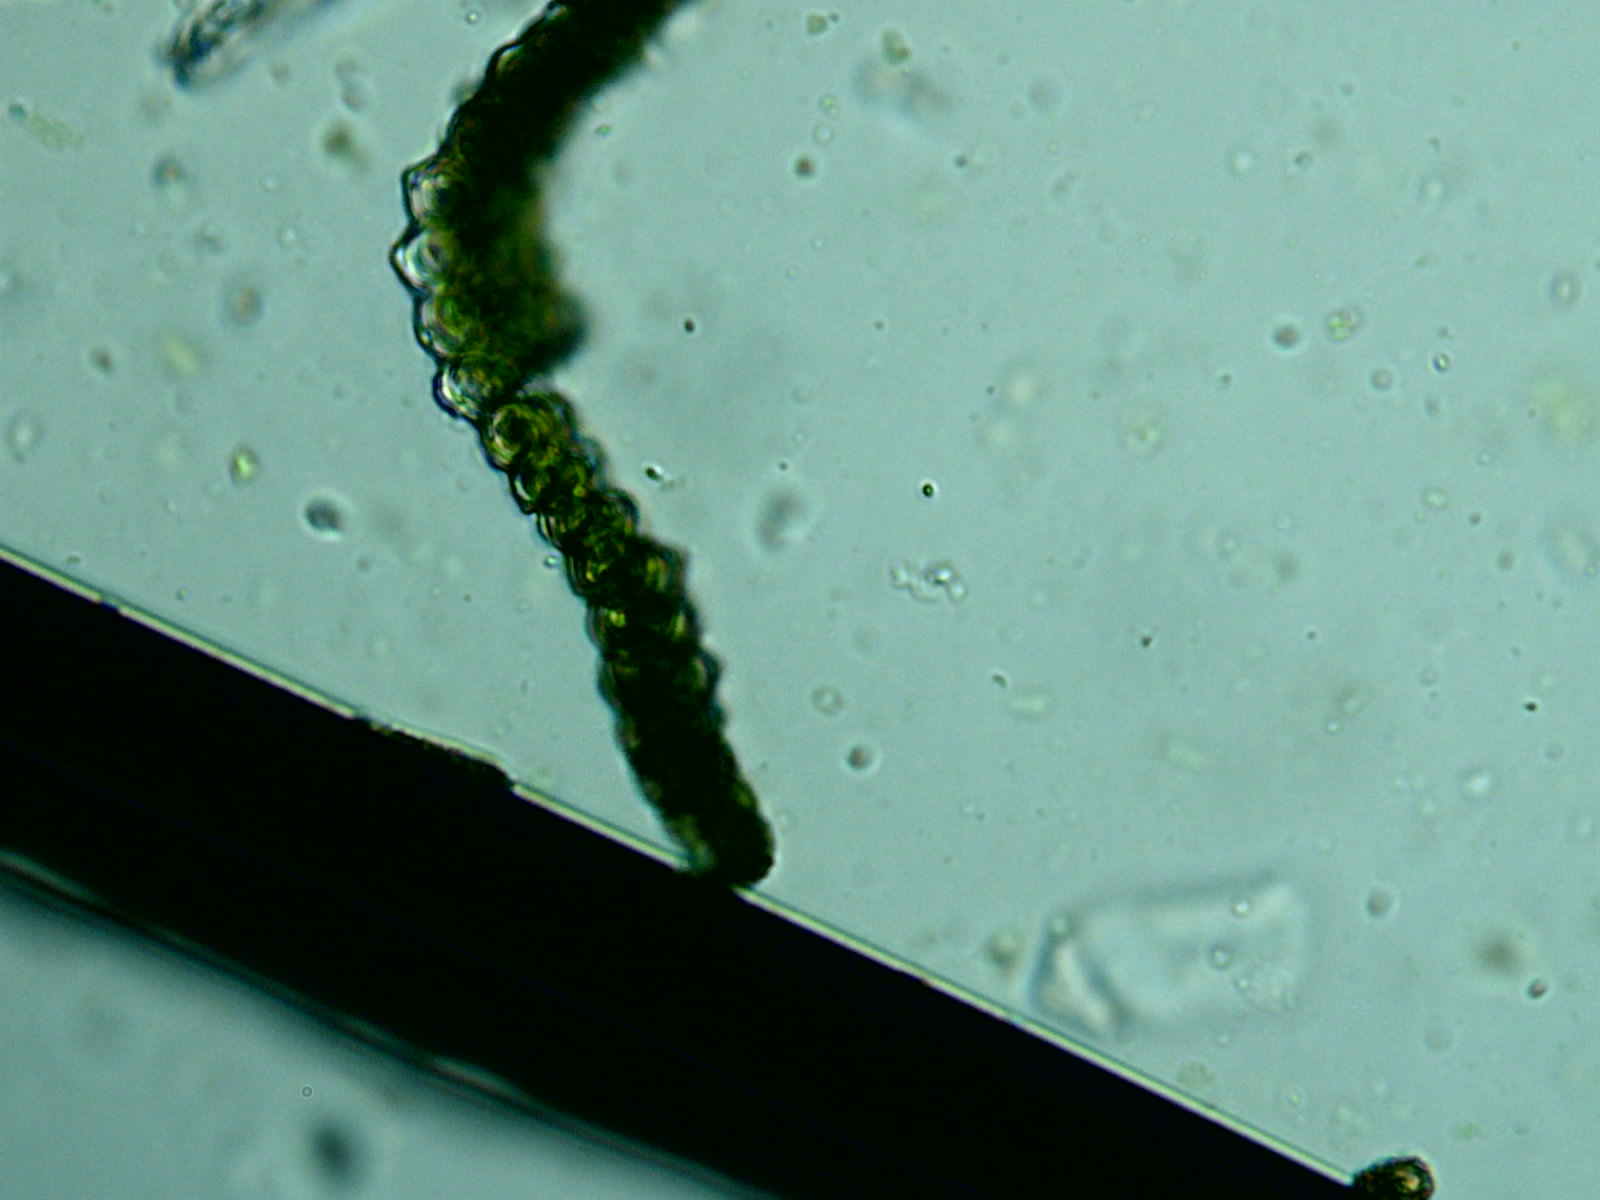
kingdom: Plantae
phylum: Bryophyta
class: Bryopsida
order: Orthotrichales
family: Orthotrichaceae
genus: Orthotrichum
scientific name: Orthotrichum stellatum
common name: Starlike bristle moss
